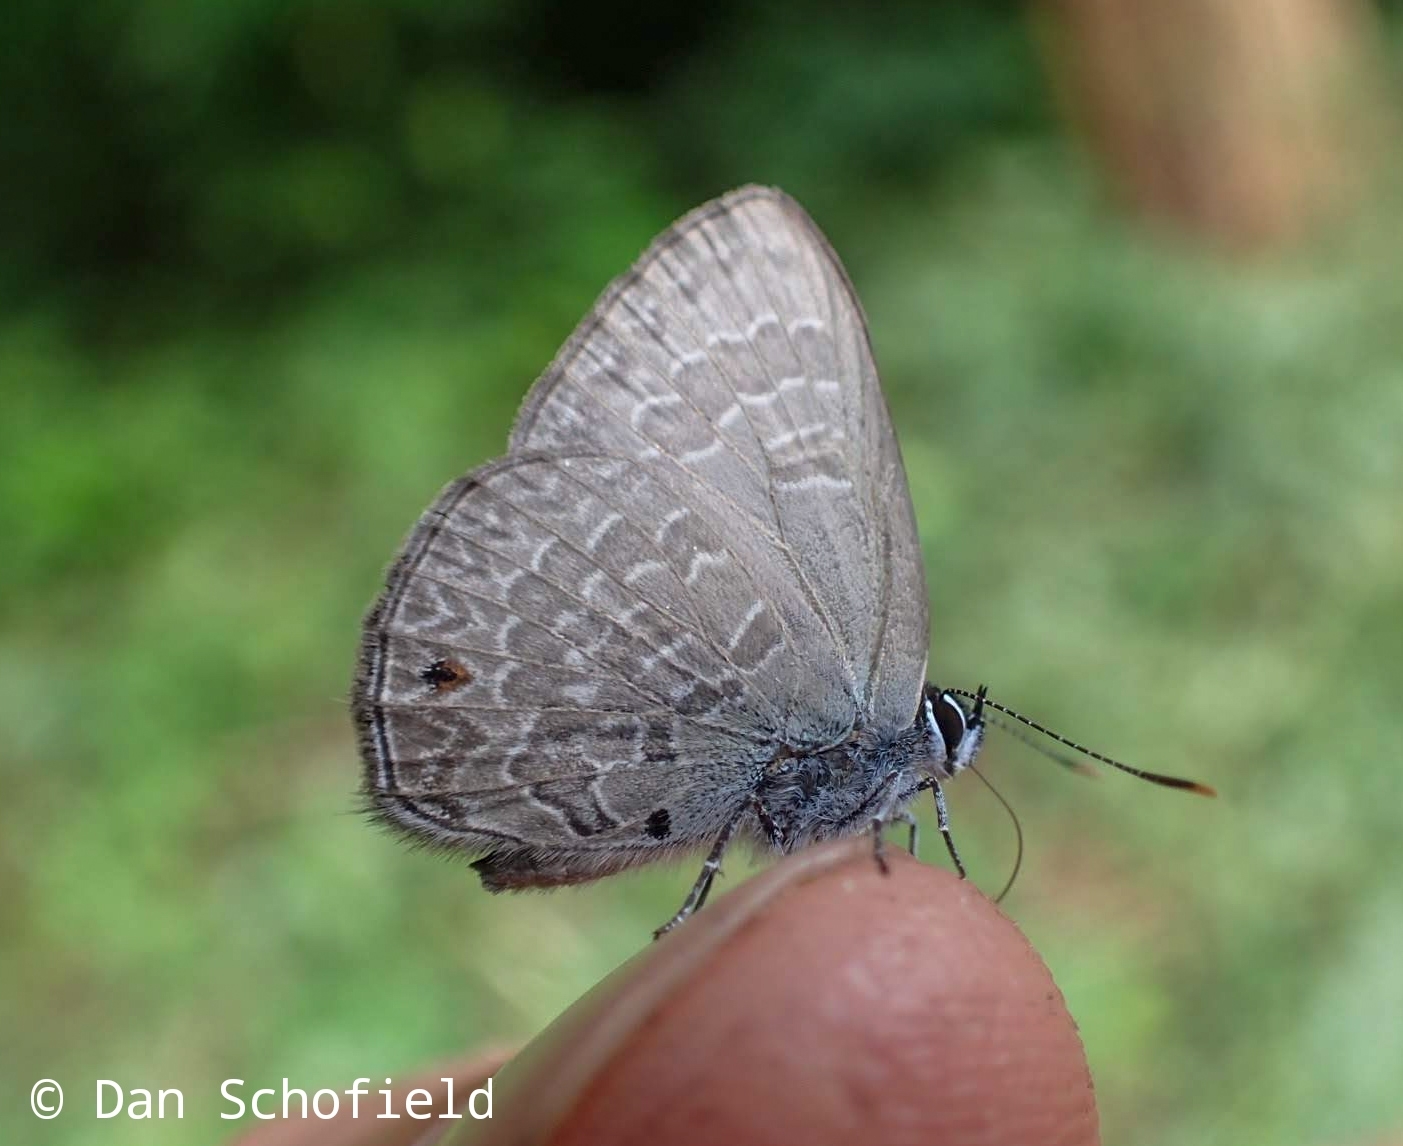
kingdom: Animalia
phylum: Arthropoda
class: Insecta
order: Lepidoptera
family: Lycaenidae
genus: Anthene
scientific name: Anthene emolus
